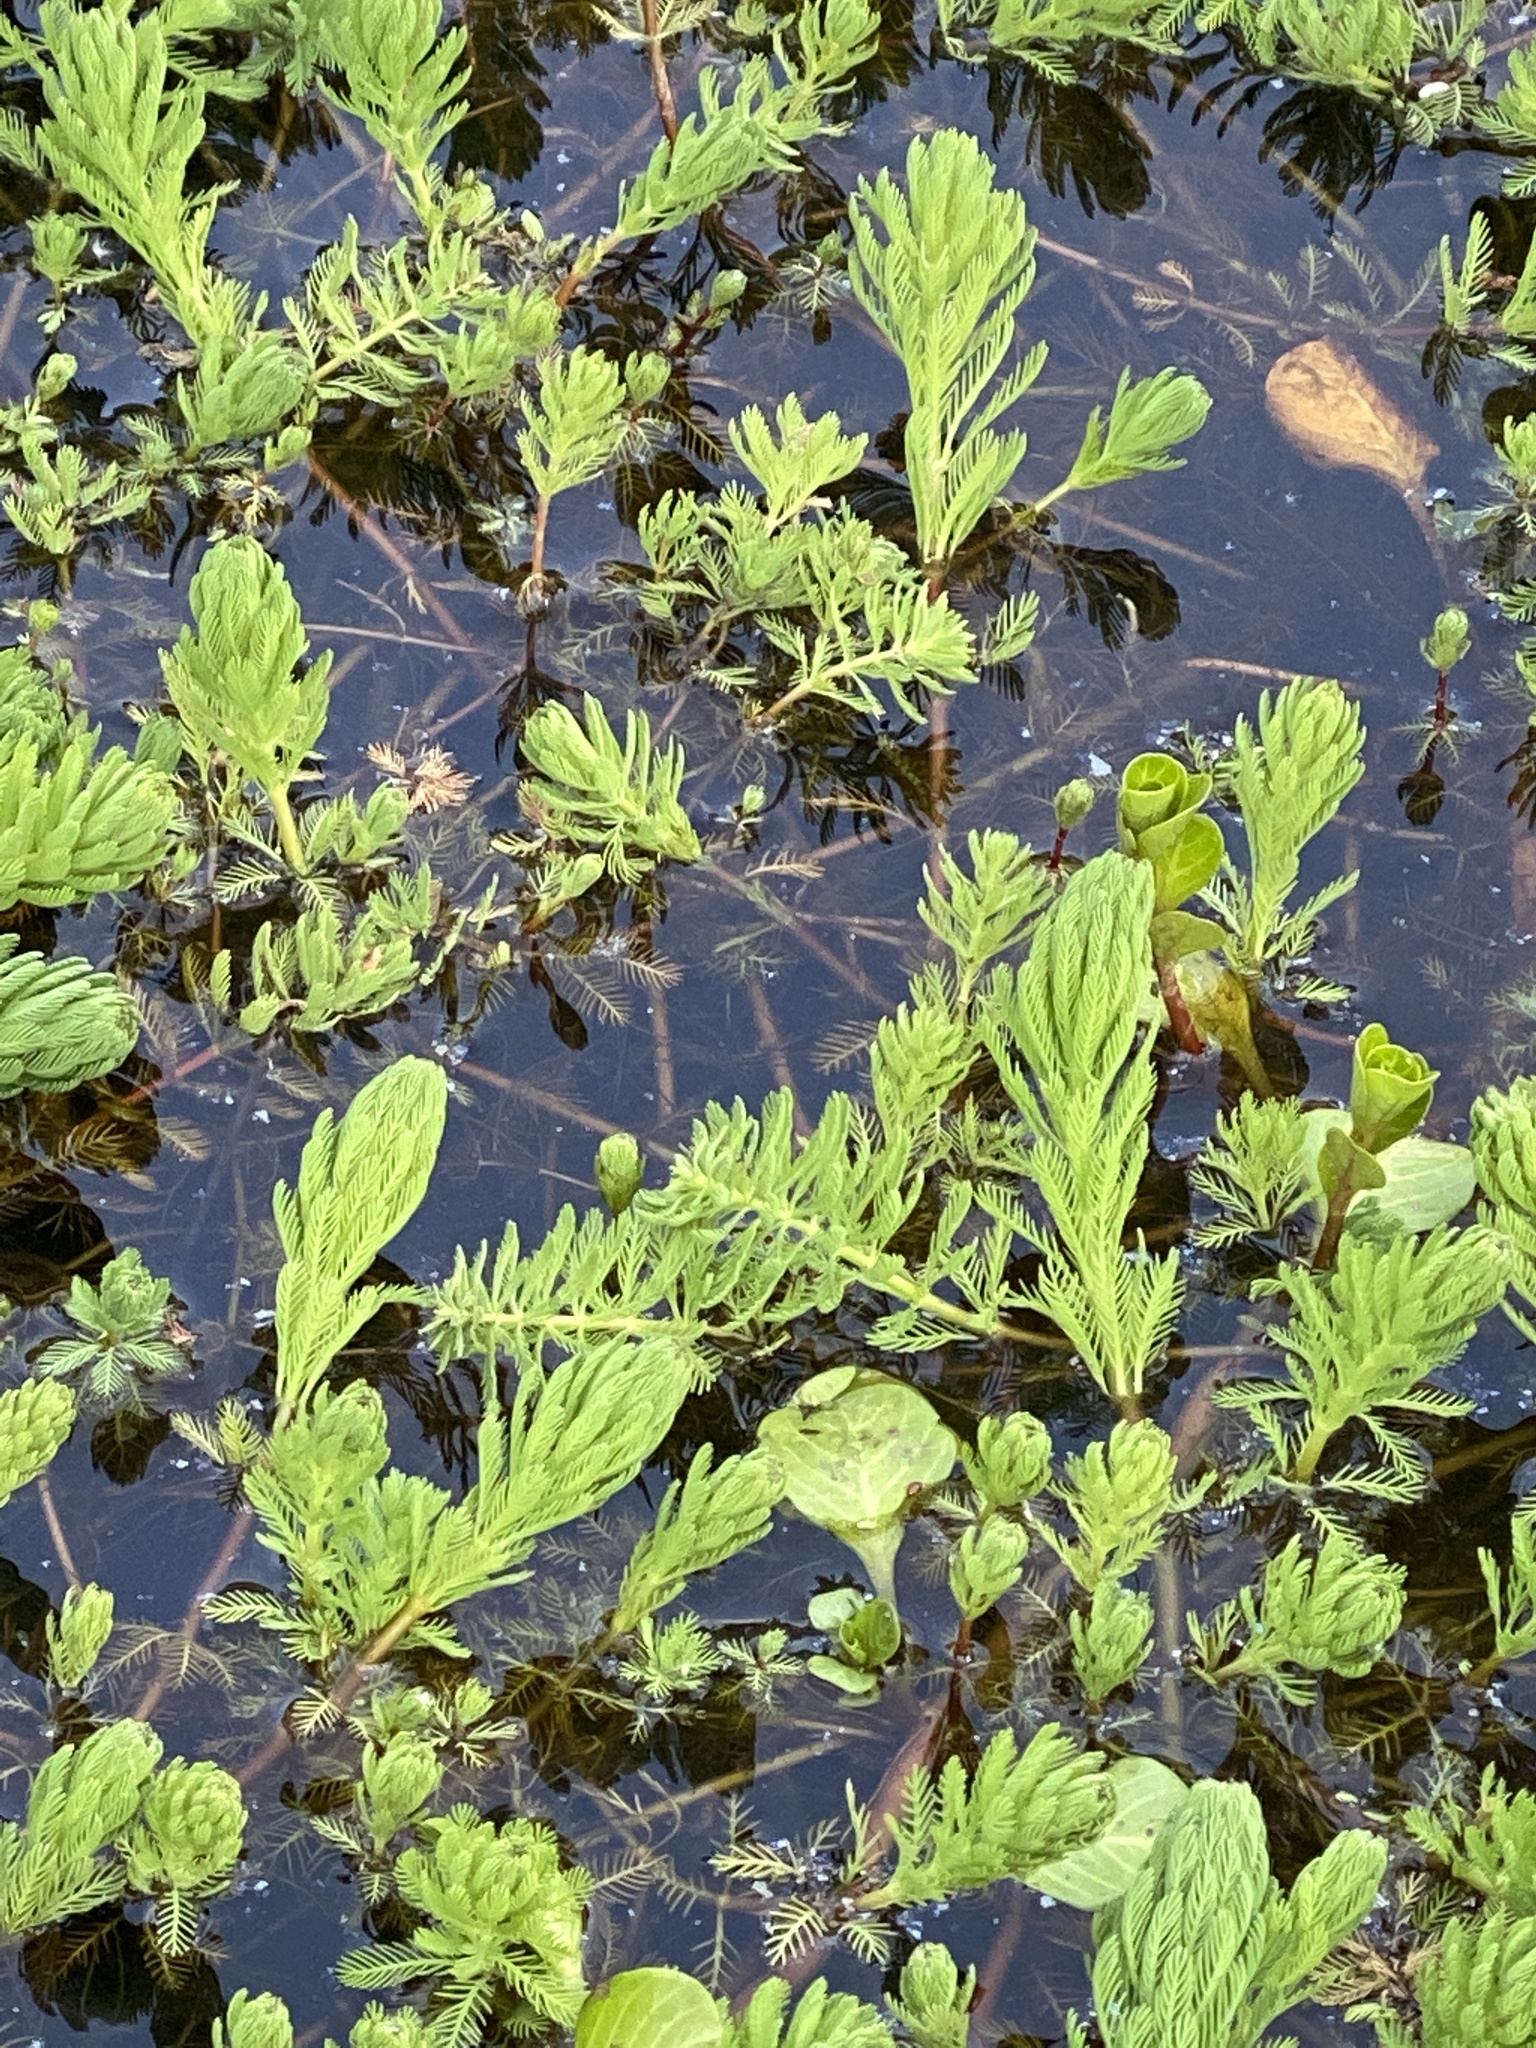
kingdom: Plantae
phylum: Tracheophyta
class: Magnoliopsida
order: Saxifragales
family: Haloragaceae
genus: Myriophyllum
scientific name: Myriophyllum aquaticum
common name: Parrot's feather
